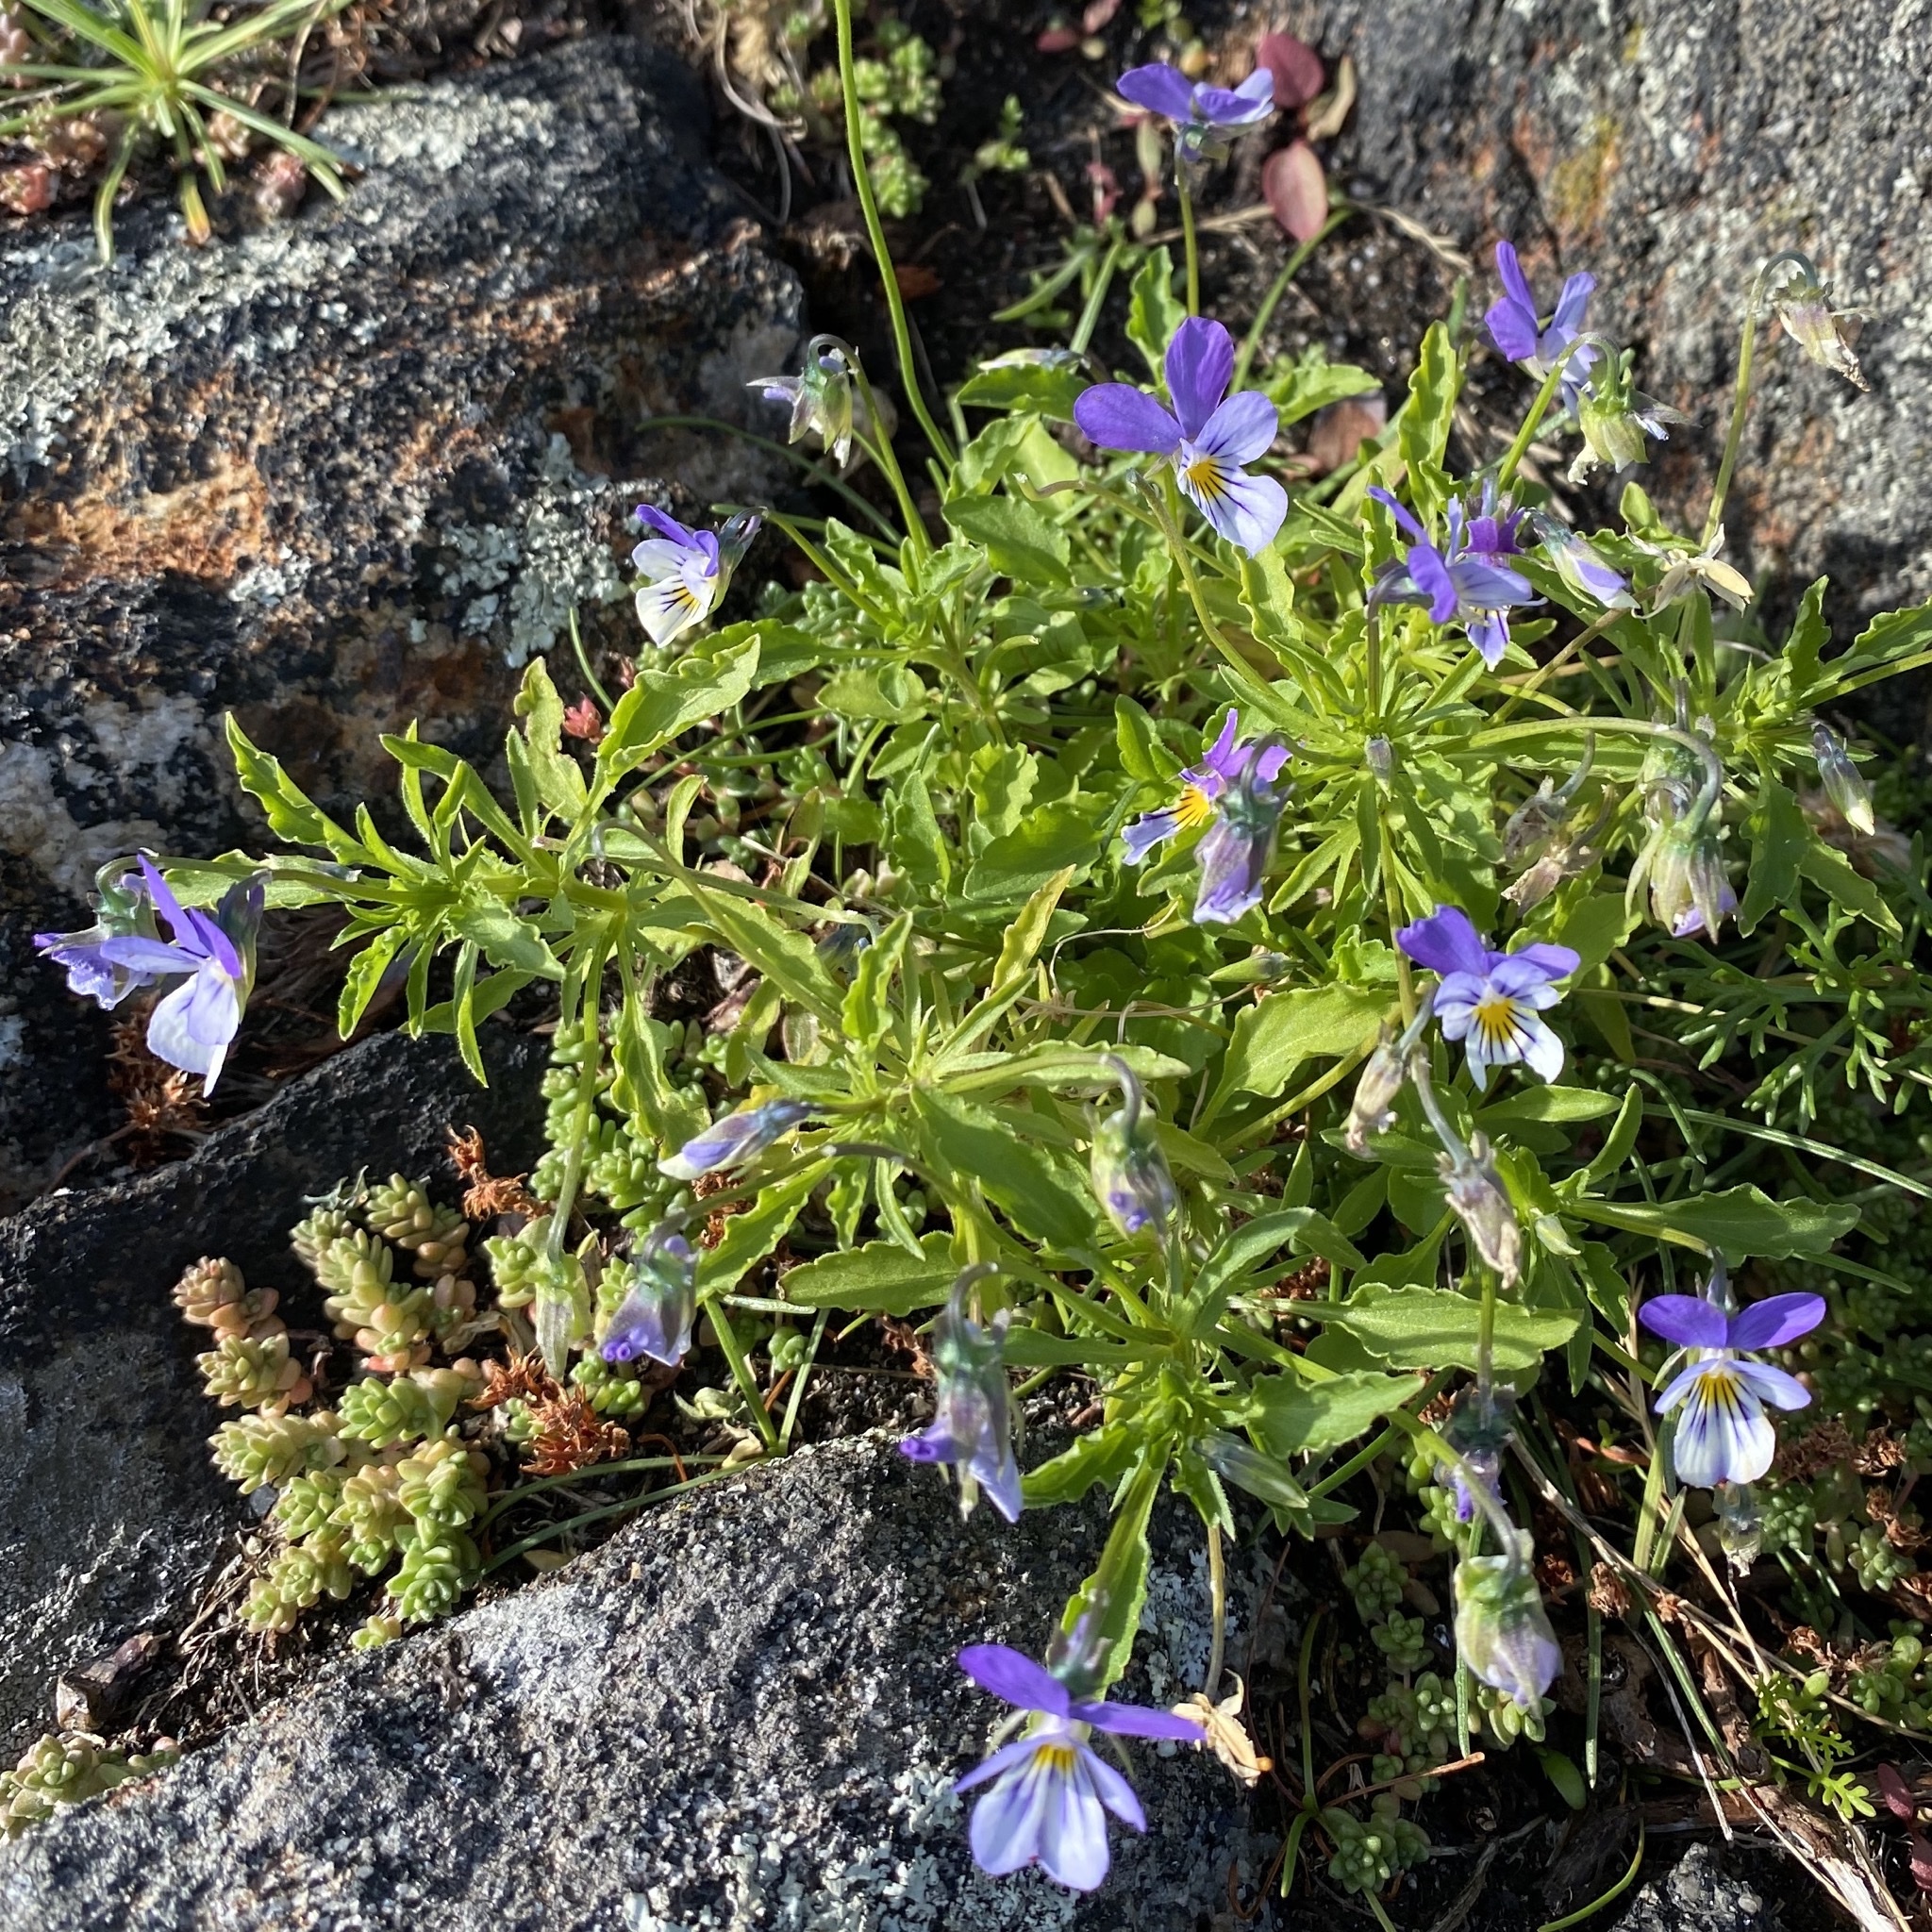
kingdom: Plantae
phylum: Tracheophyta
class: Magnoliopsida
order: Malpighiales
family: Violaceae
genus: Viola
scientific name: Viola tricolor
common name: Pansy
